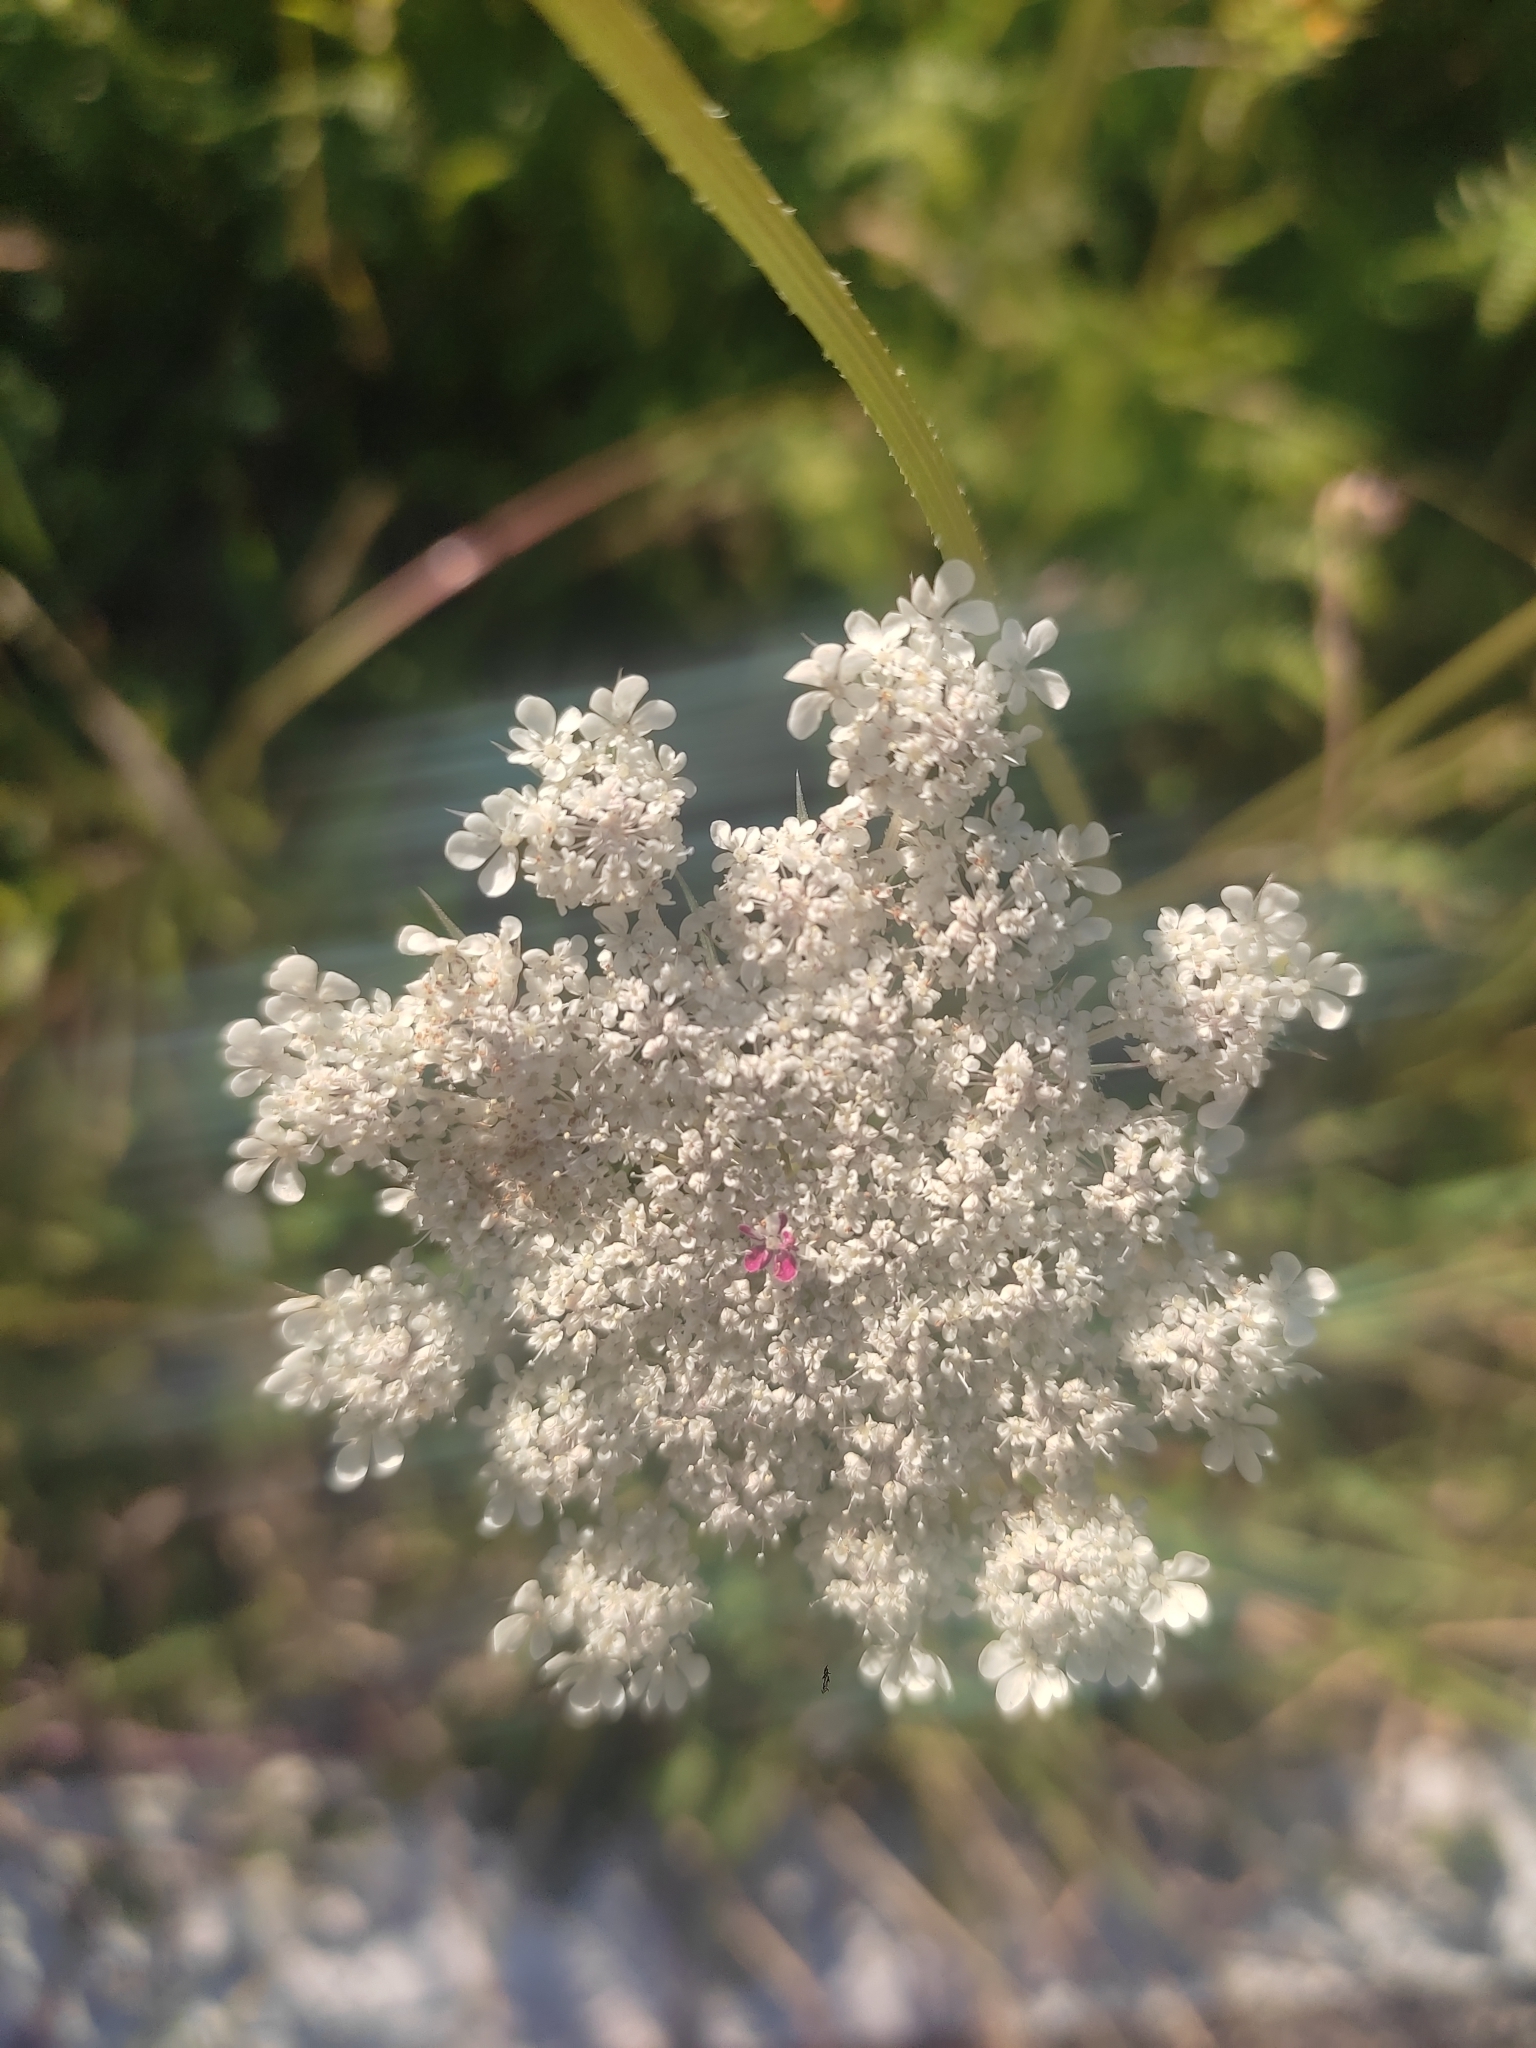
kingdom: Plantae
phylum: Tracheophyta
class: Magnoliopsida
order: Apiales
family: Apiaceae
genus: Daucus
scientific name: Daucus carota
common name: Wild carrot
